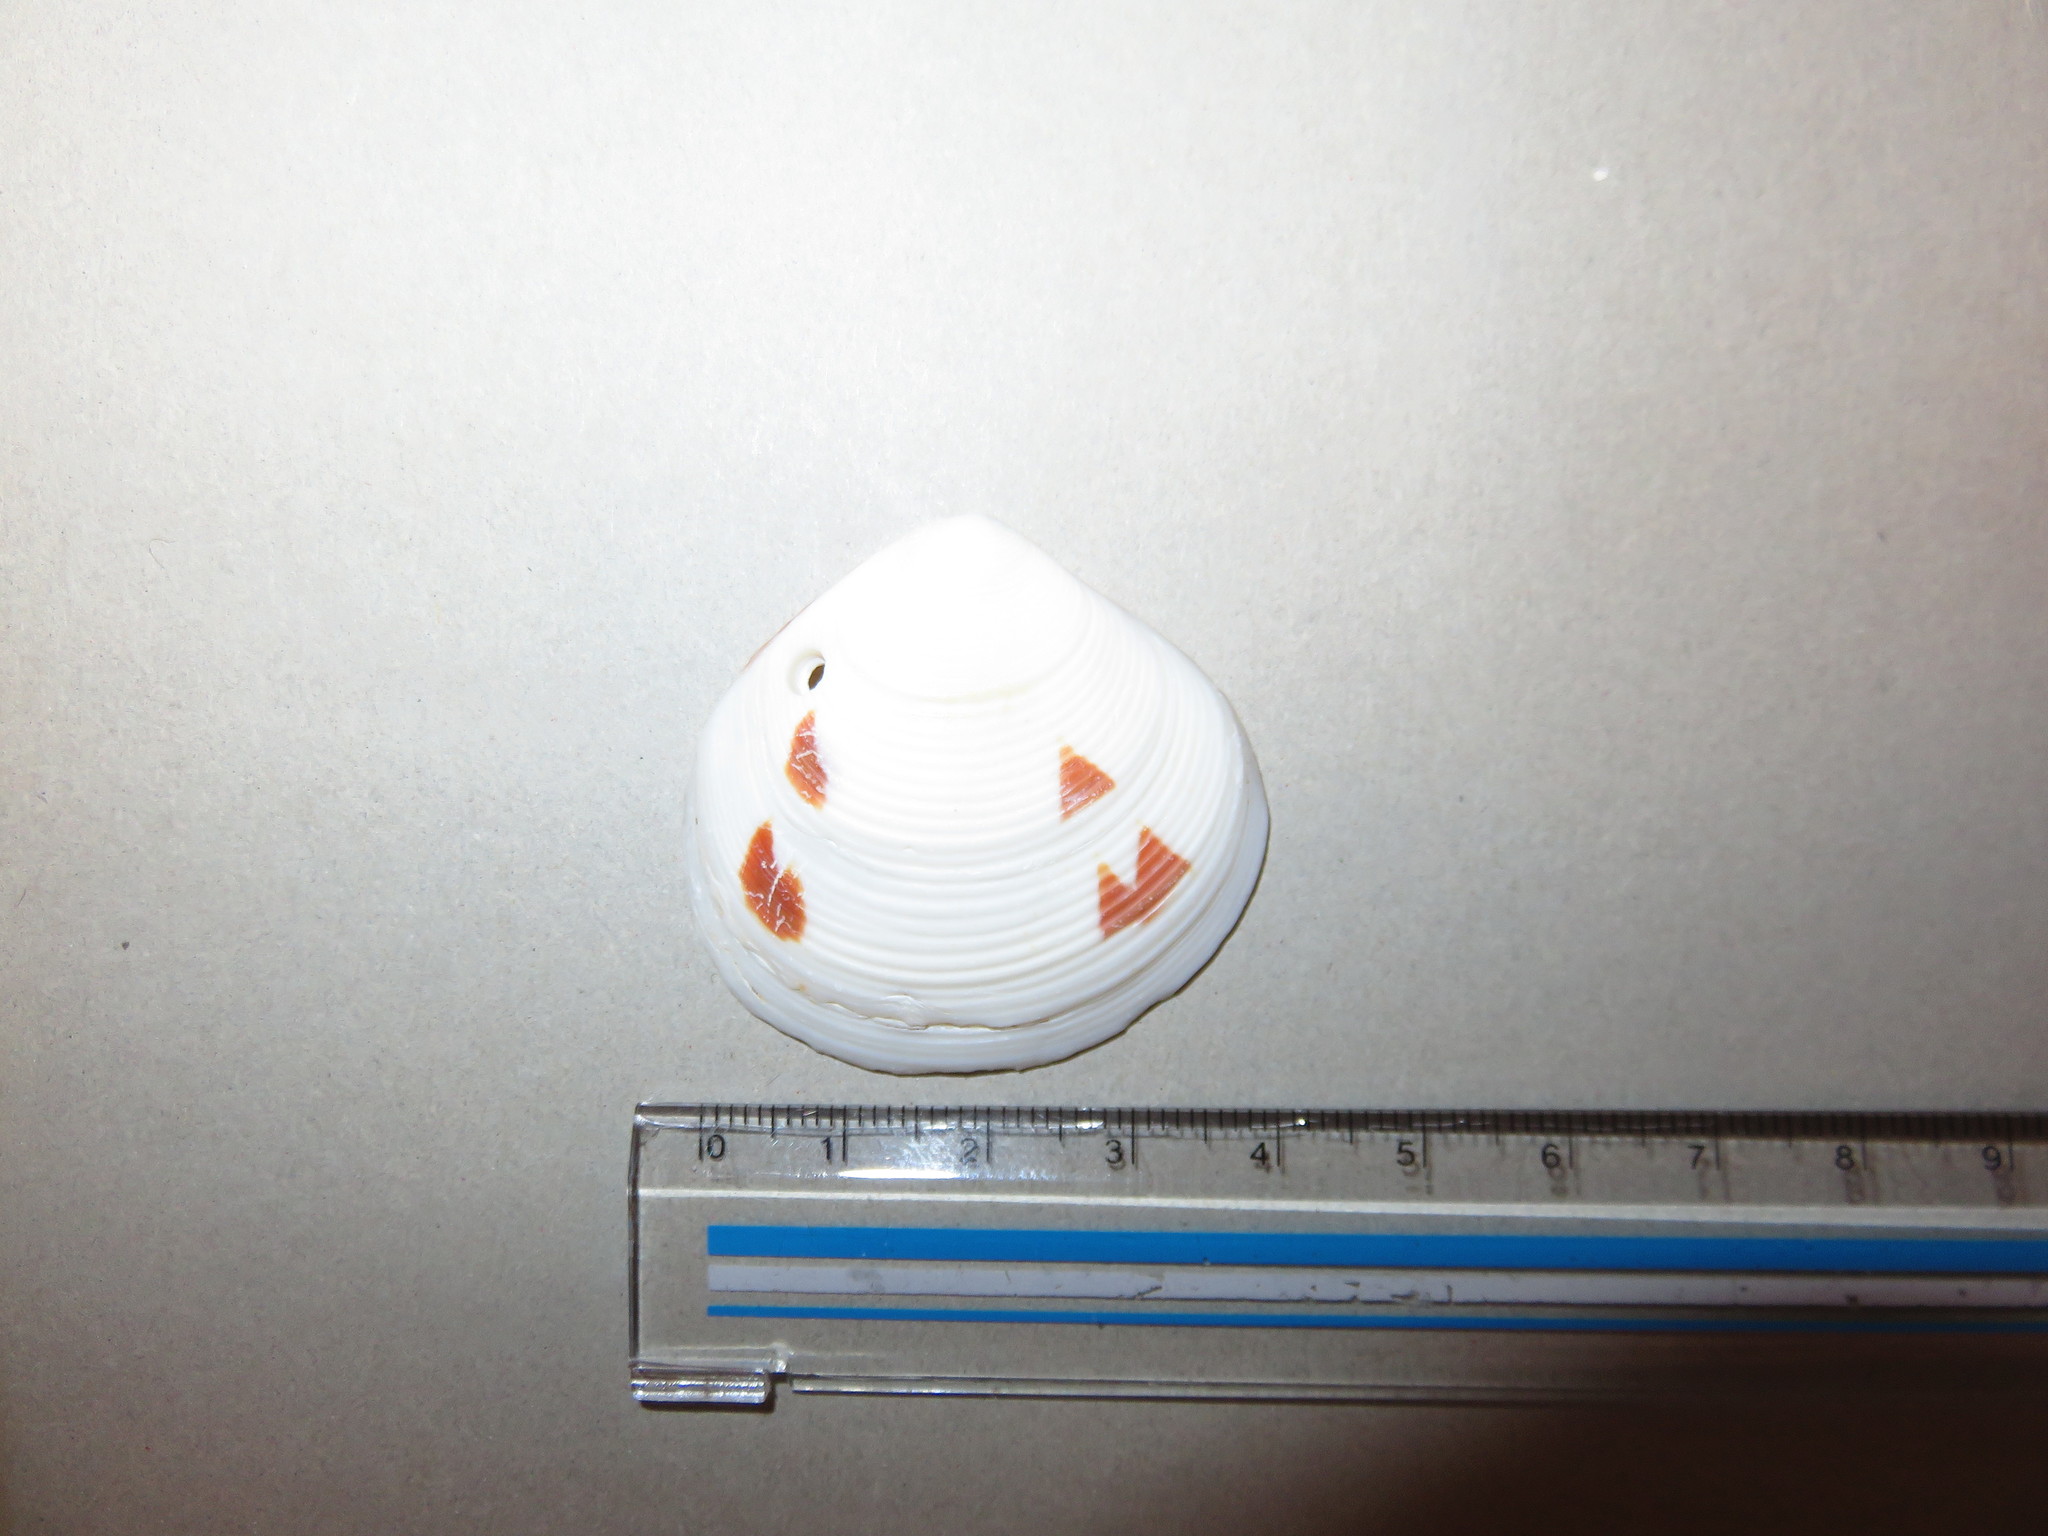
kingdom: Animalia
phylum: Mollusca
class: Bivalvia
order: Venerida
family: Veneridae
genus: Circe
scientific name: Circe undatina
